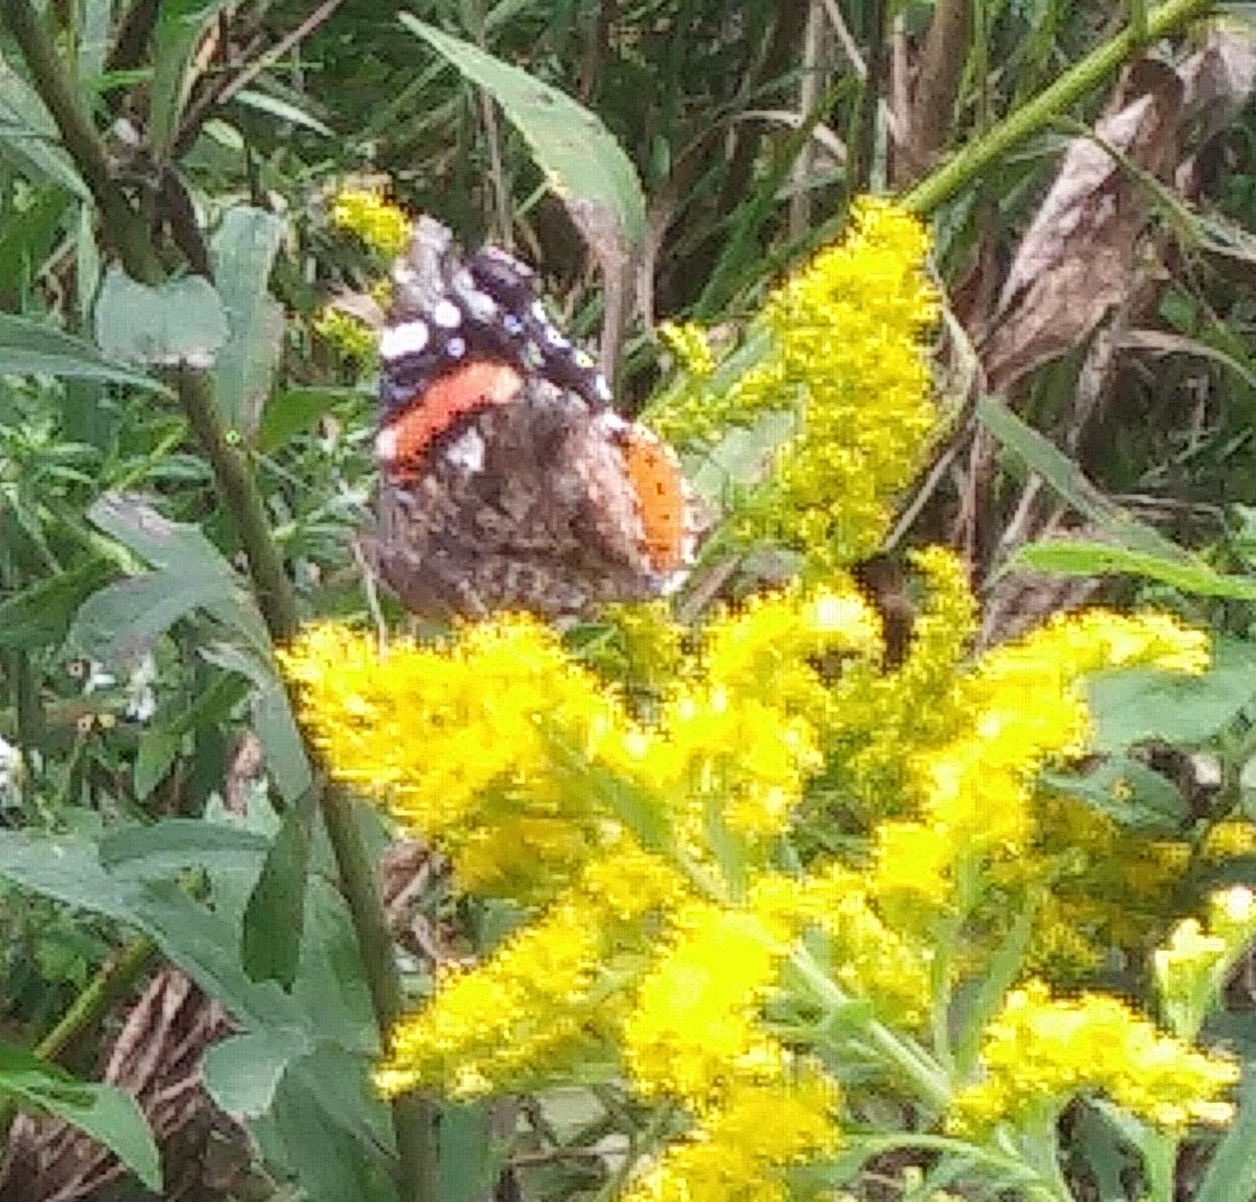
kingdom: Animalia
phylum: Arthropoda
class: Insecta
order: Lepidoptera
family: Nymphalidae
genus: Vanessa
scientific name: Vanessa atalanta
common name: Red admiral
